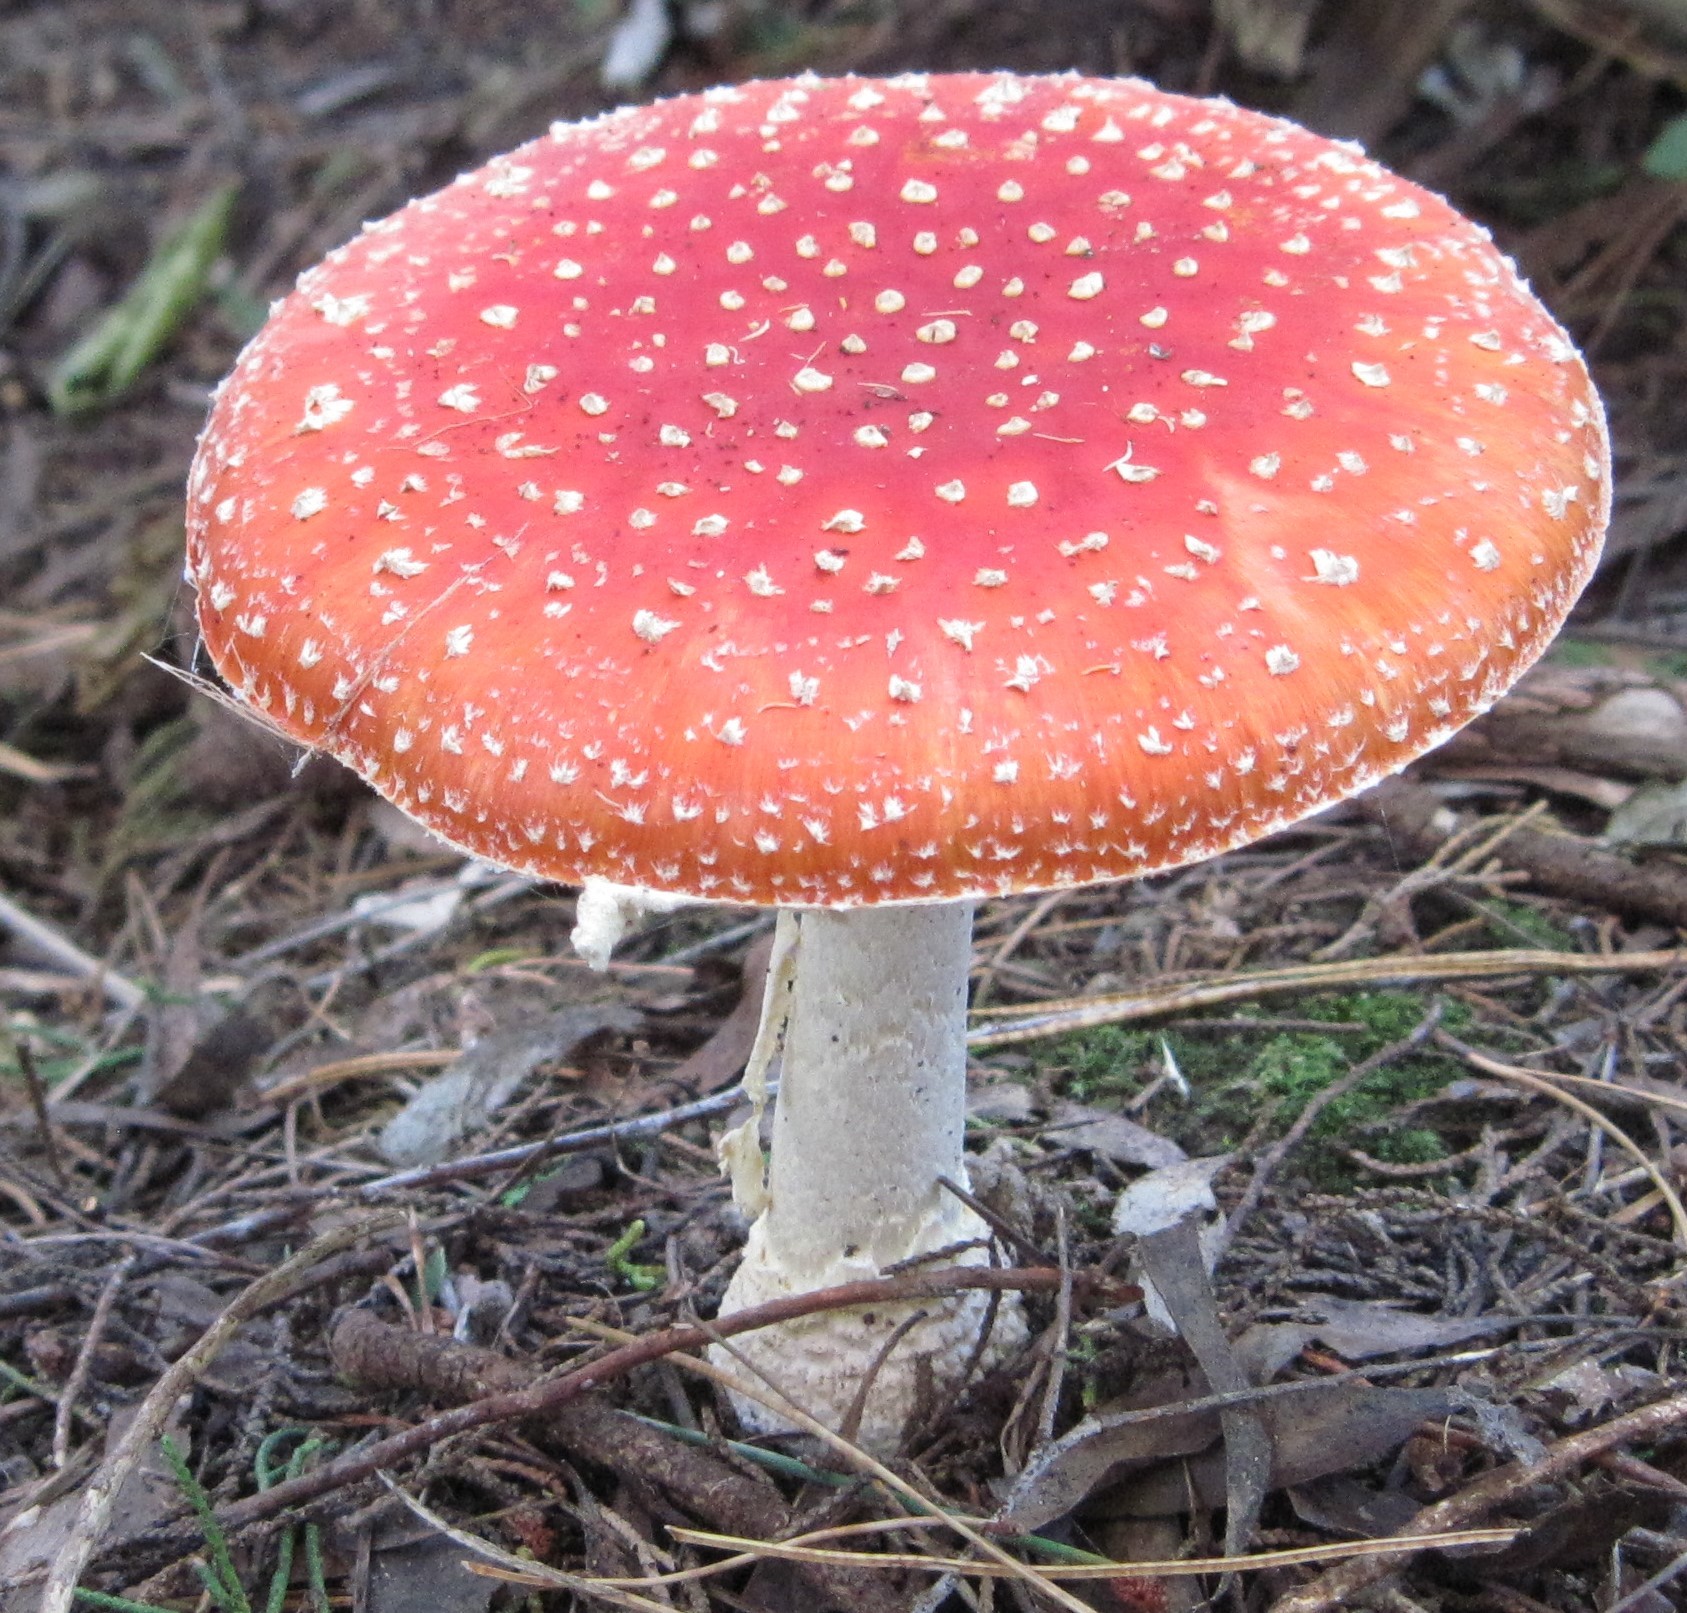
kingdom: Fungi
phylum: Basidiomycota
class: Agaricomycetes
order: Agaricales
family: Amanitaceae
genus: Amanita
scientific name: Amanita muscaria
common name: Fly agaric
